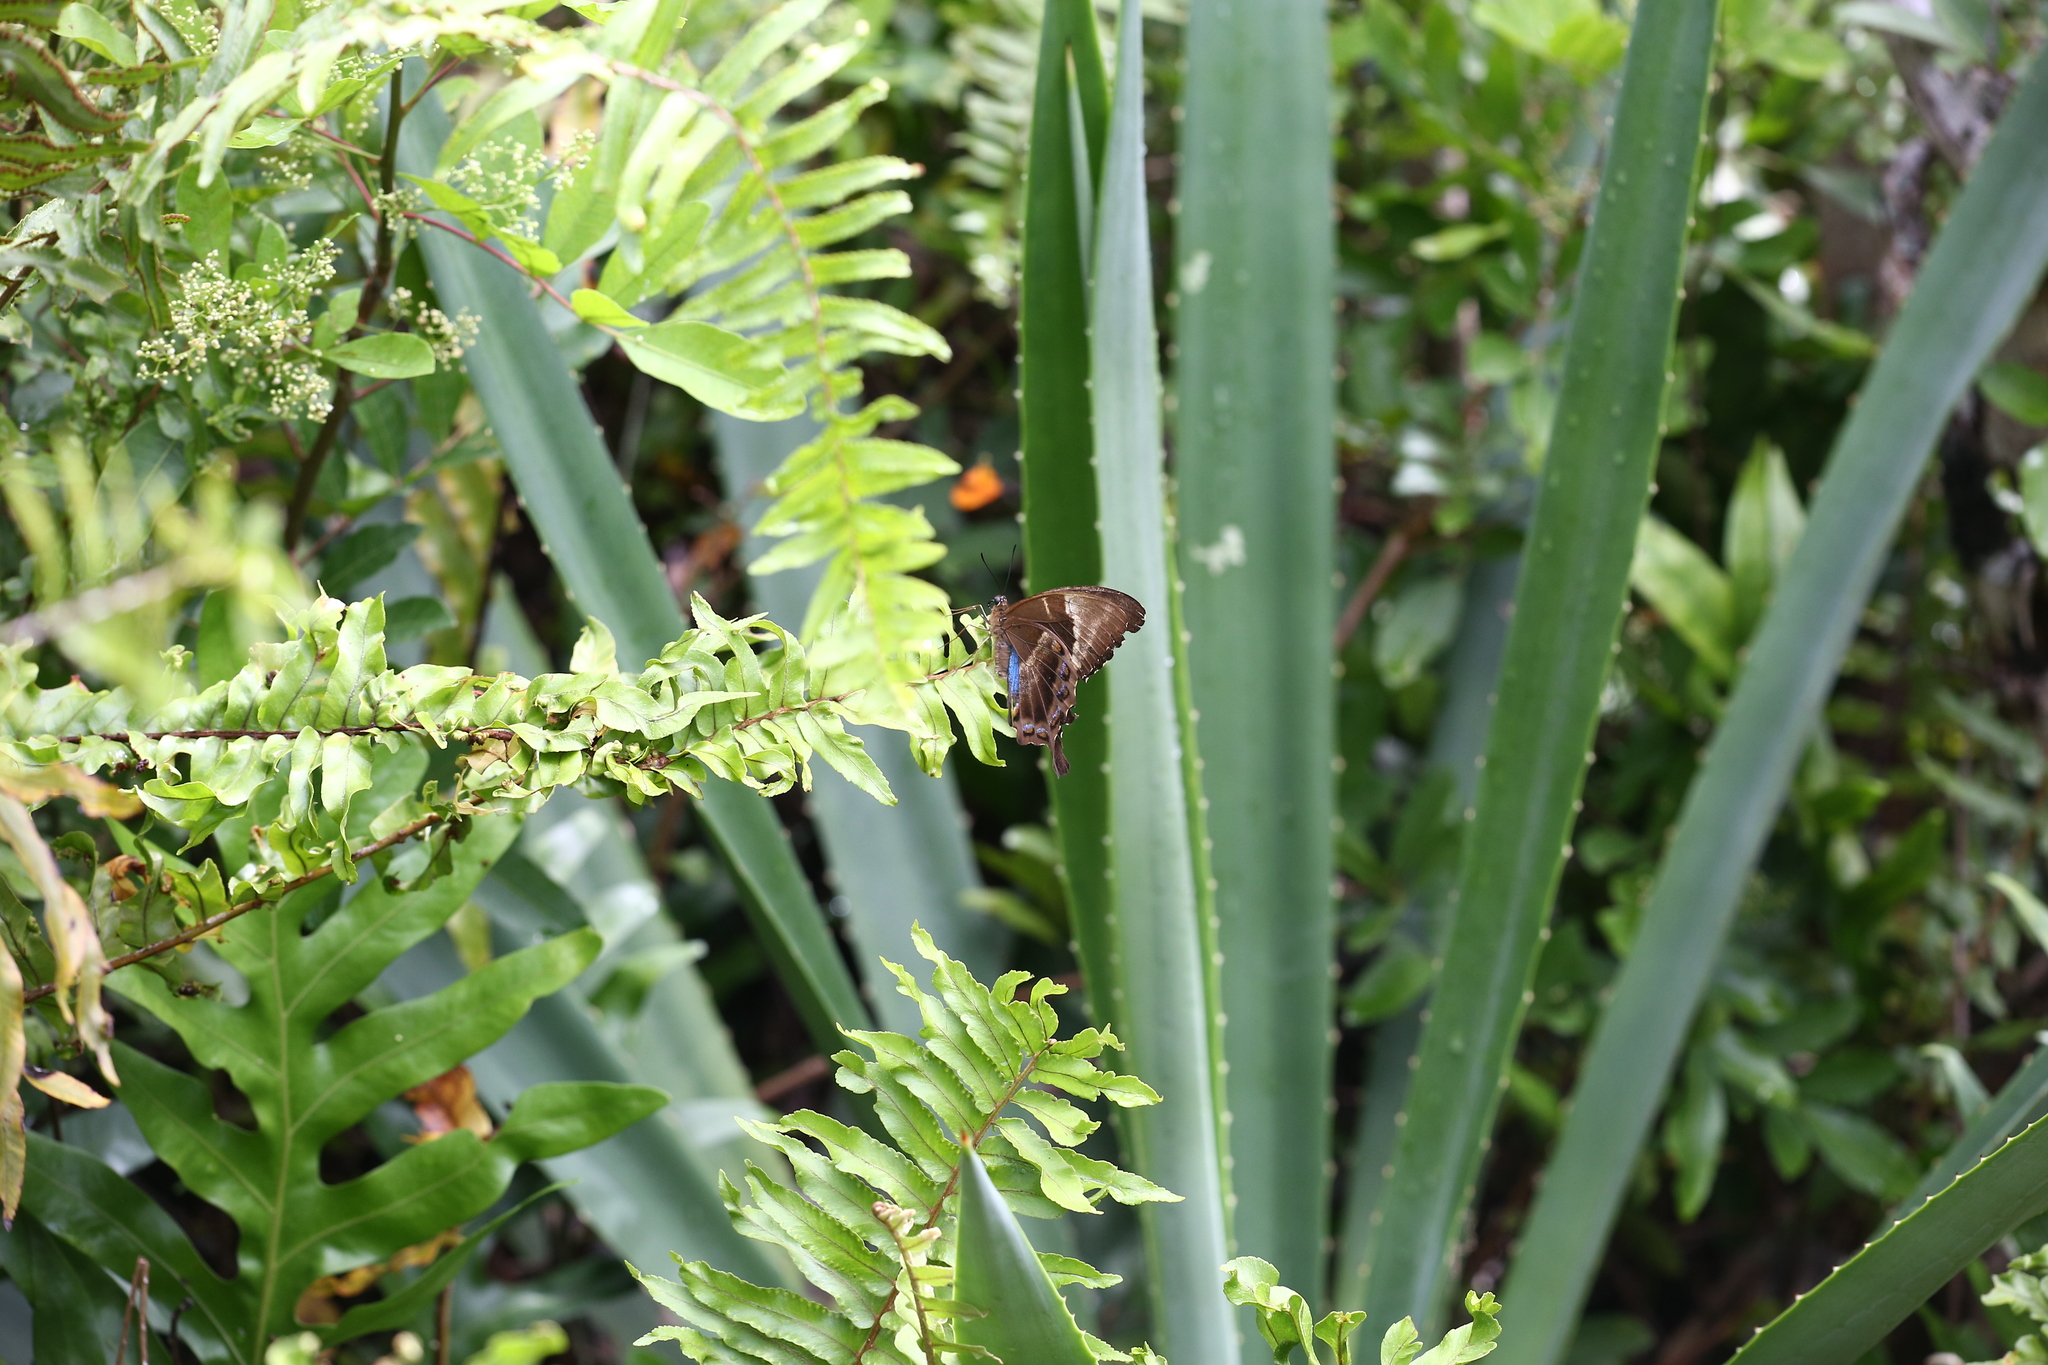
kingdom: Animalia
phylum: Arthropoda
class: Insecta
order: Lepidoptera
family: Papilionidae
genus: Papilio
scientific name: Papilio montrouzieri
